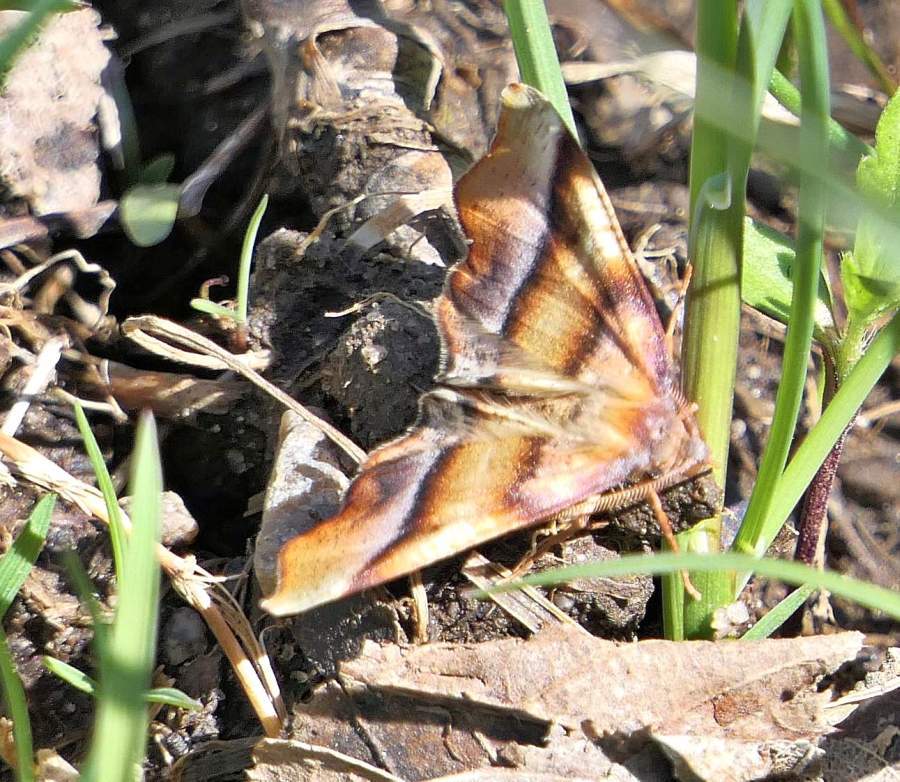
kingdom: Animalia
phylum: Arthropoda
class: Insecta
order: Lepidoptera
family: Geometridae
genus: Plagodis
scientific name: Plagodis phlogosaria
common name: Straight-lined plagodis
